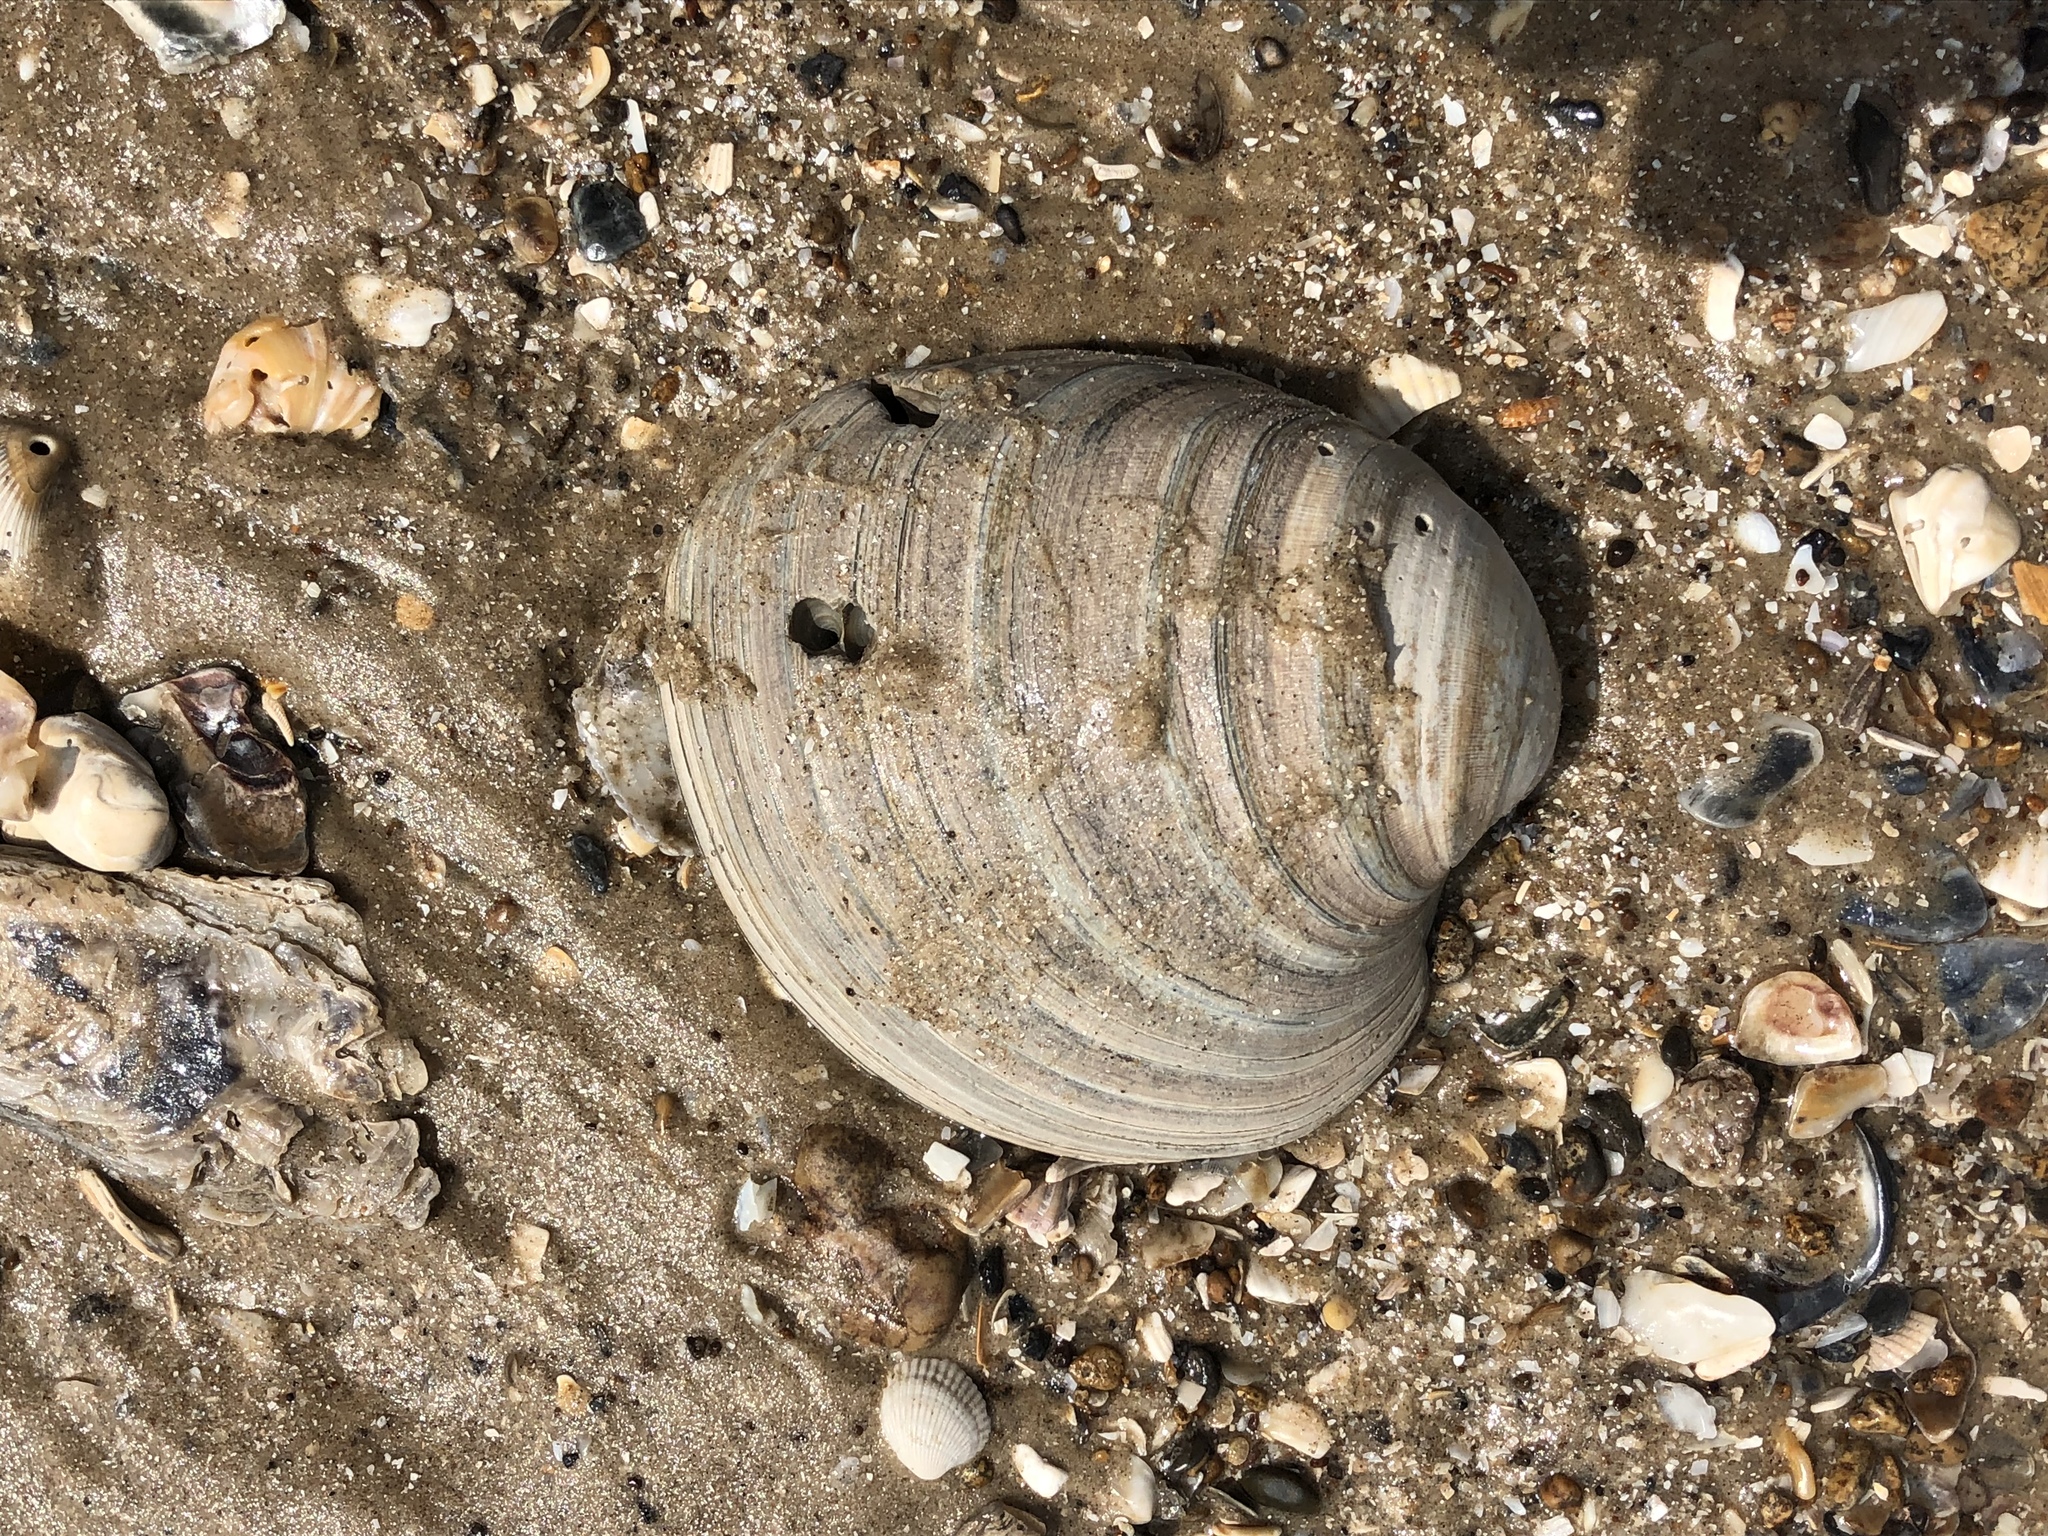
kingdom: Animalia
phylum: Mollusca
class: Bivalvia
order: Venerida
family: Veneridae
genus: Mercenaria
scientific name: Mercenaria campechiensis
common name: Südliche quahog-muschel
